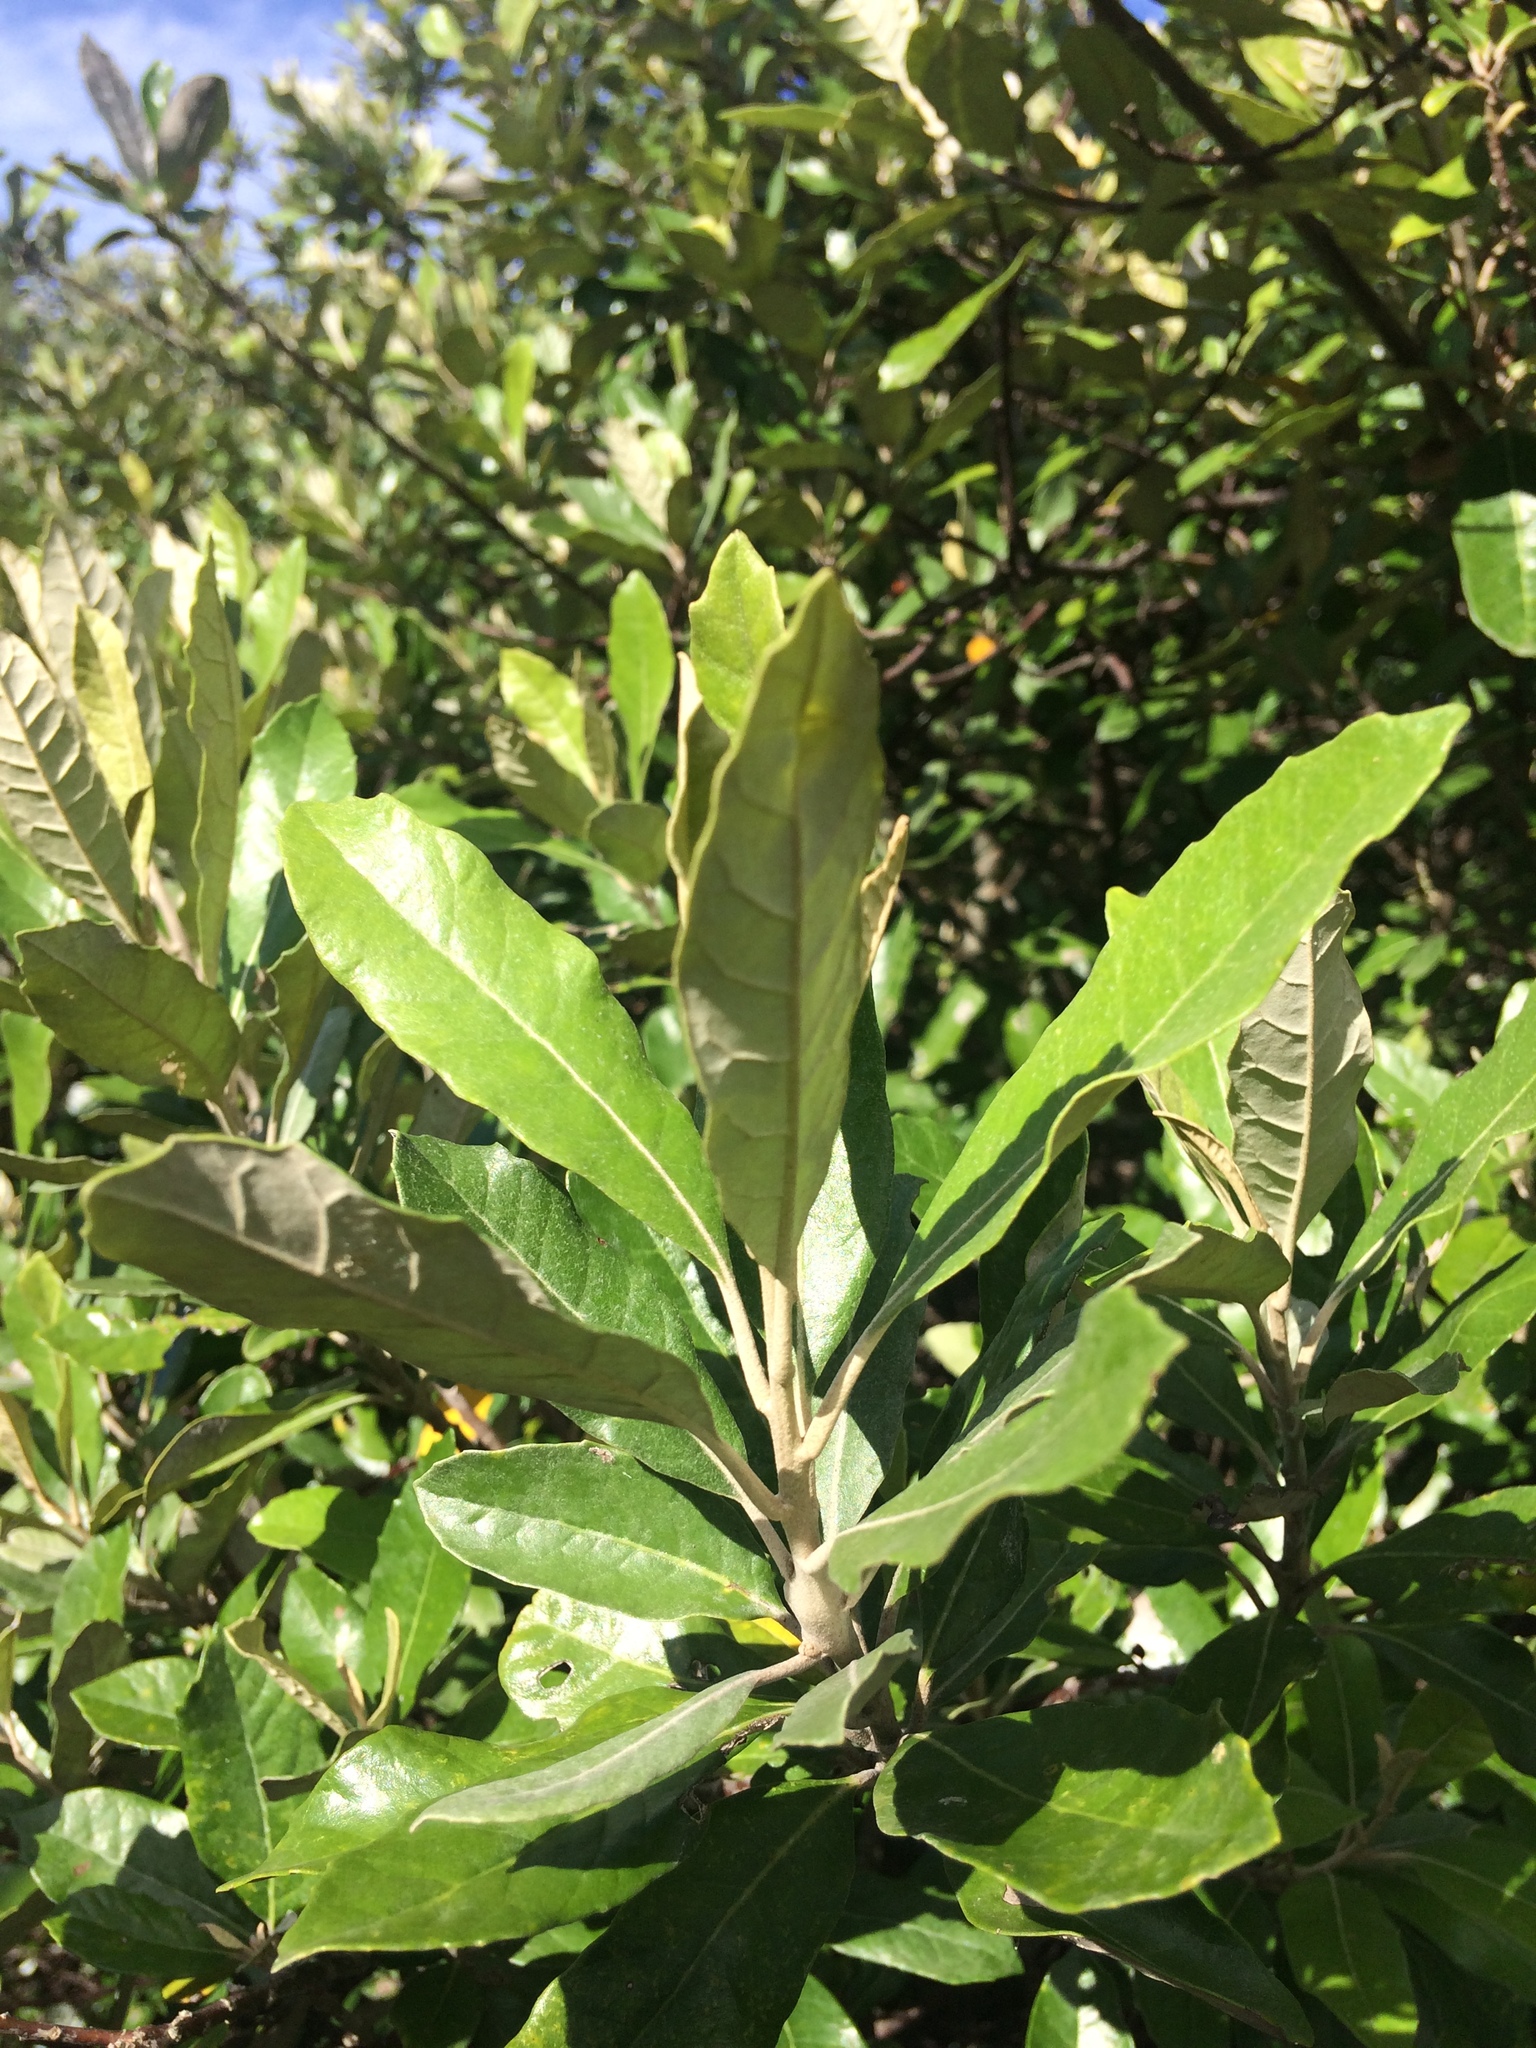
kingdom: Plantae
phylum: Tracheophyta
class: Magnoliopsida
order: Asterales
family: Asteraceae
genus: Brachylaena
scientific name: Brachylaena discolor
